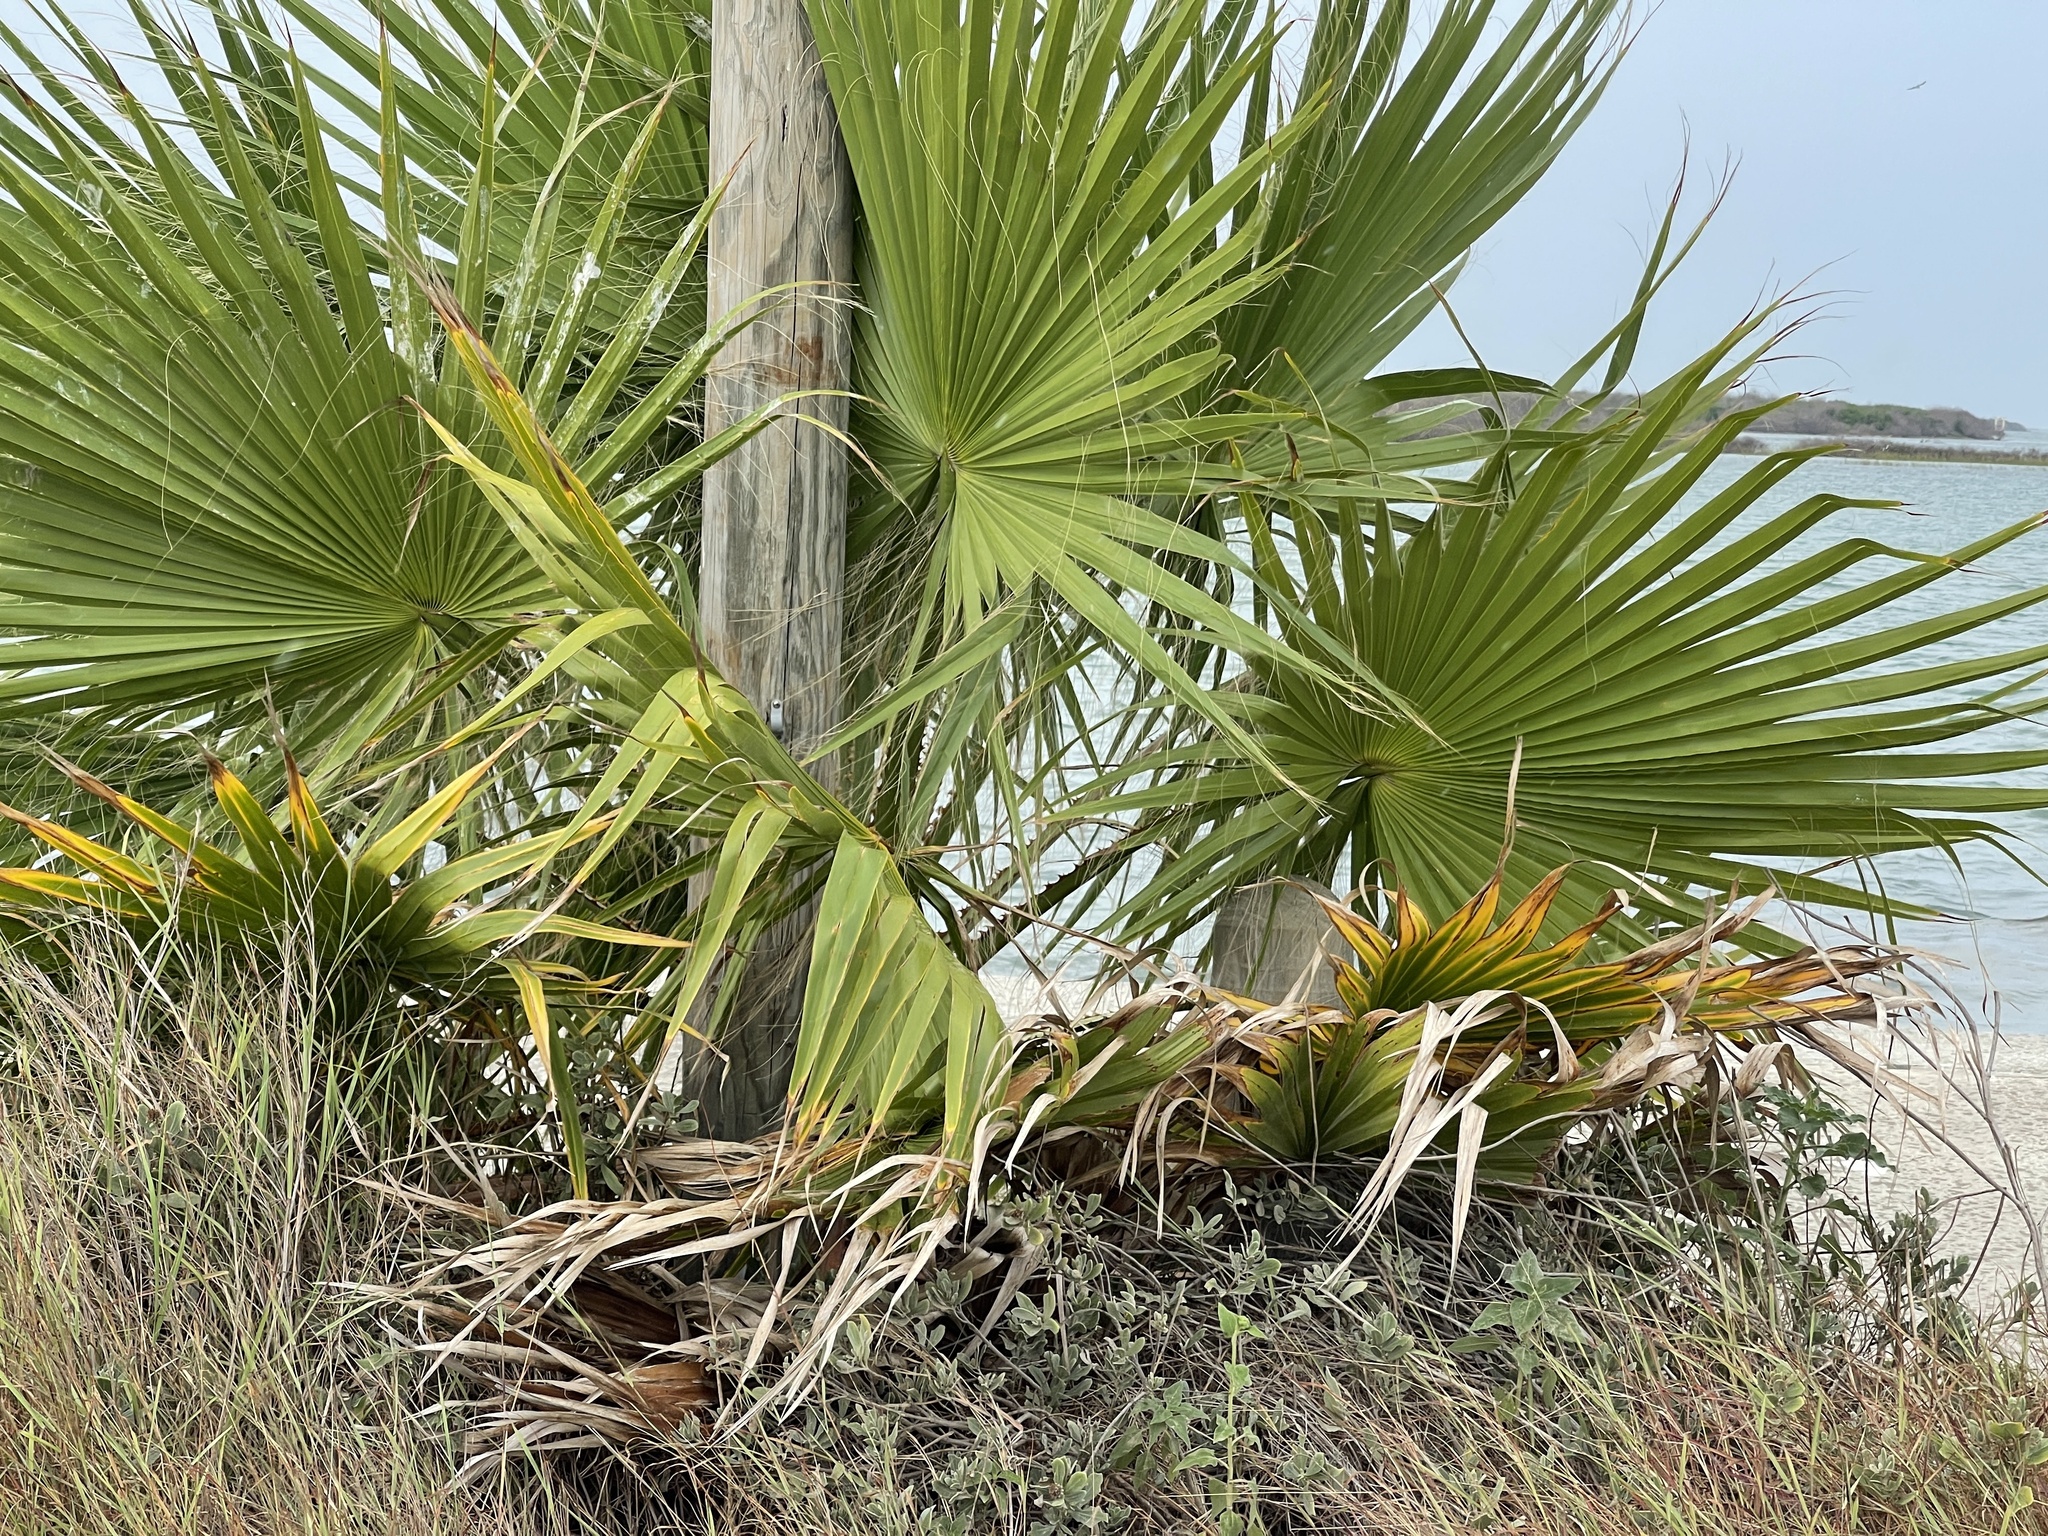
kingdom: Plantae
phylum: Tracheophyta
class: Liliopsida
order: Arecales
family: Arecaceae
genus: Washingtonia
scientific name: Washingtonia robusta
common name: Mexican fan palm
